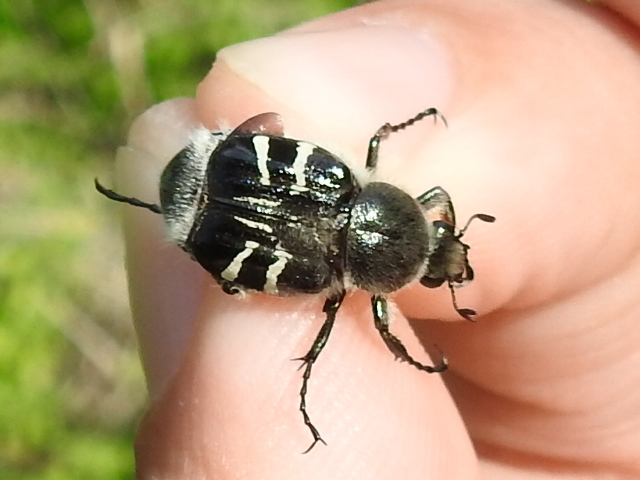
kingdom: Animalia
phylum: Arthropoda
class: Insecta
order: Coleoptera
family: Scarabaeidae
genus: Trichiotinus
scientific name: Trichiotinus texanus
